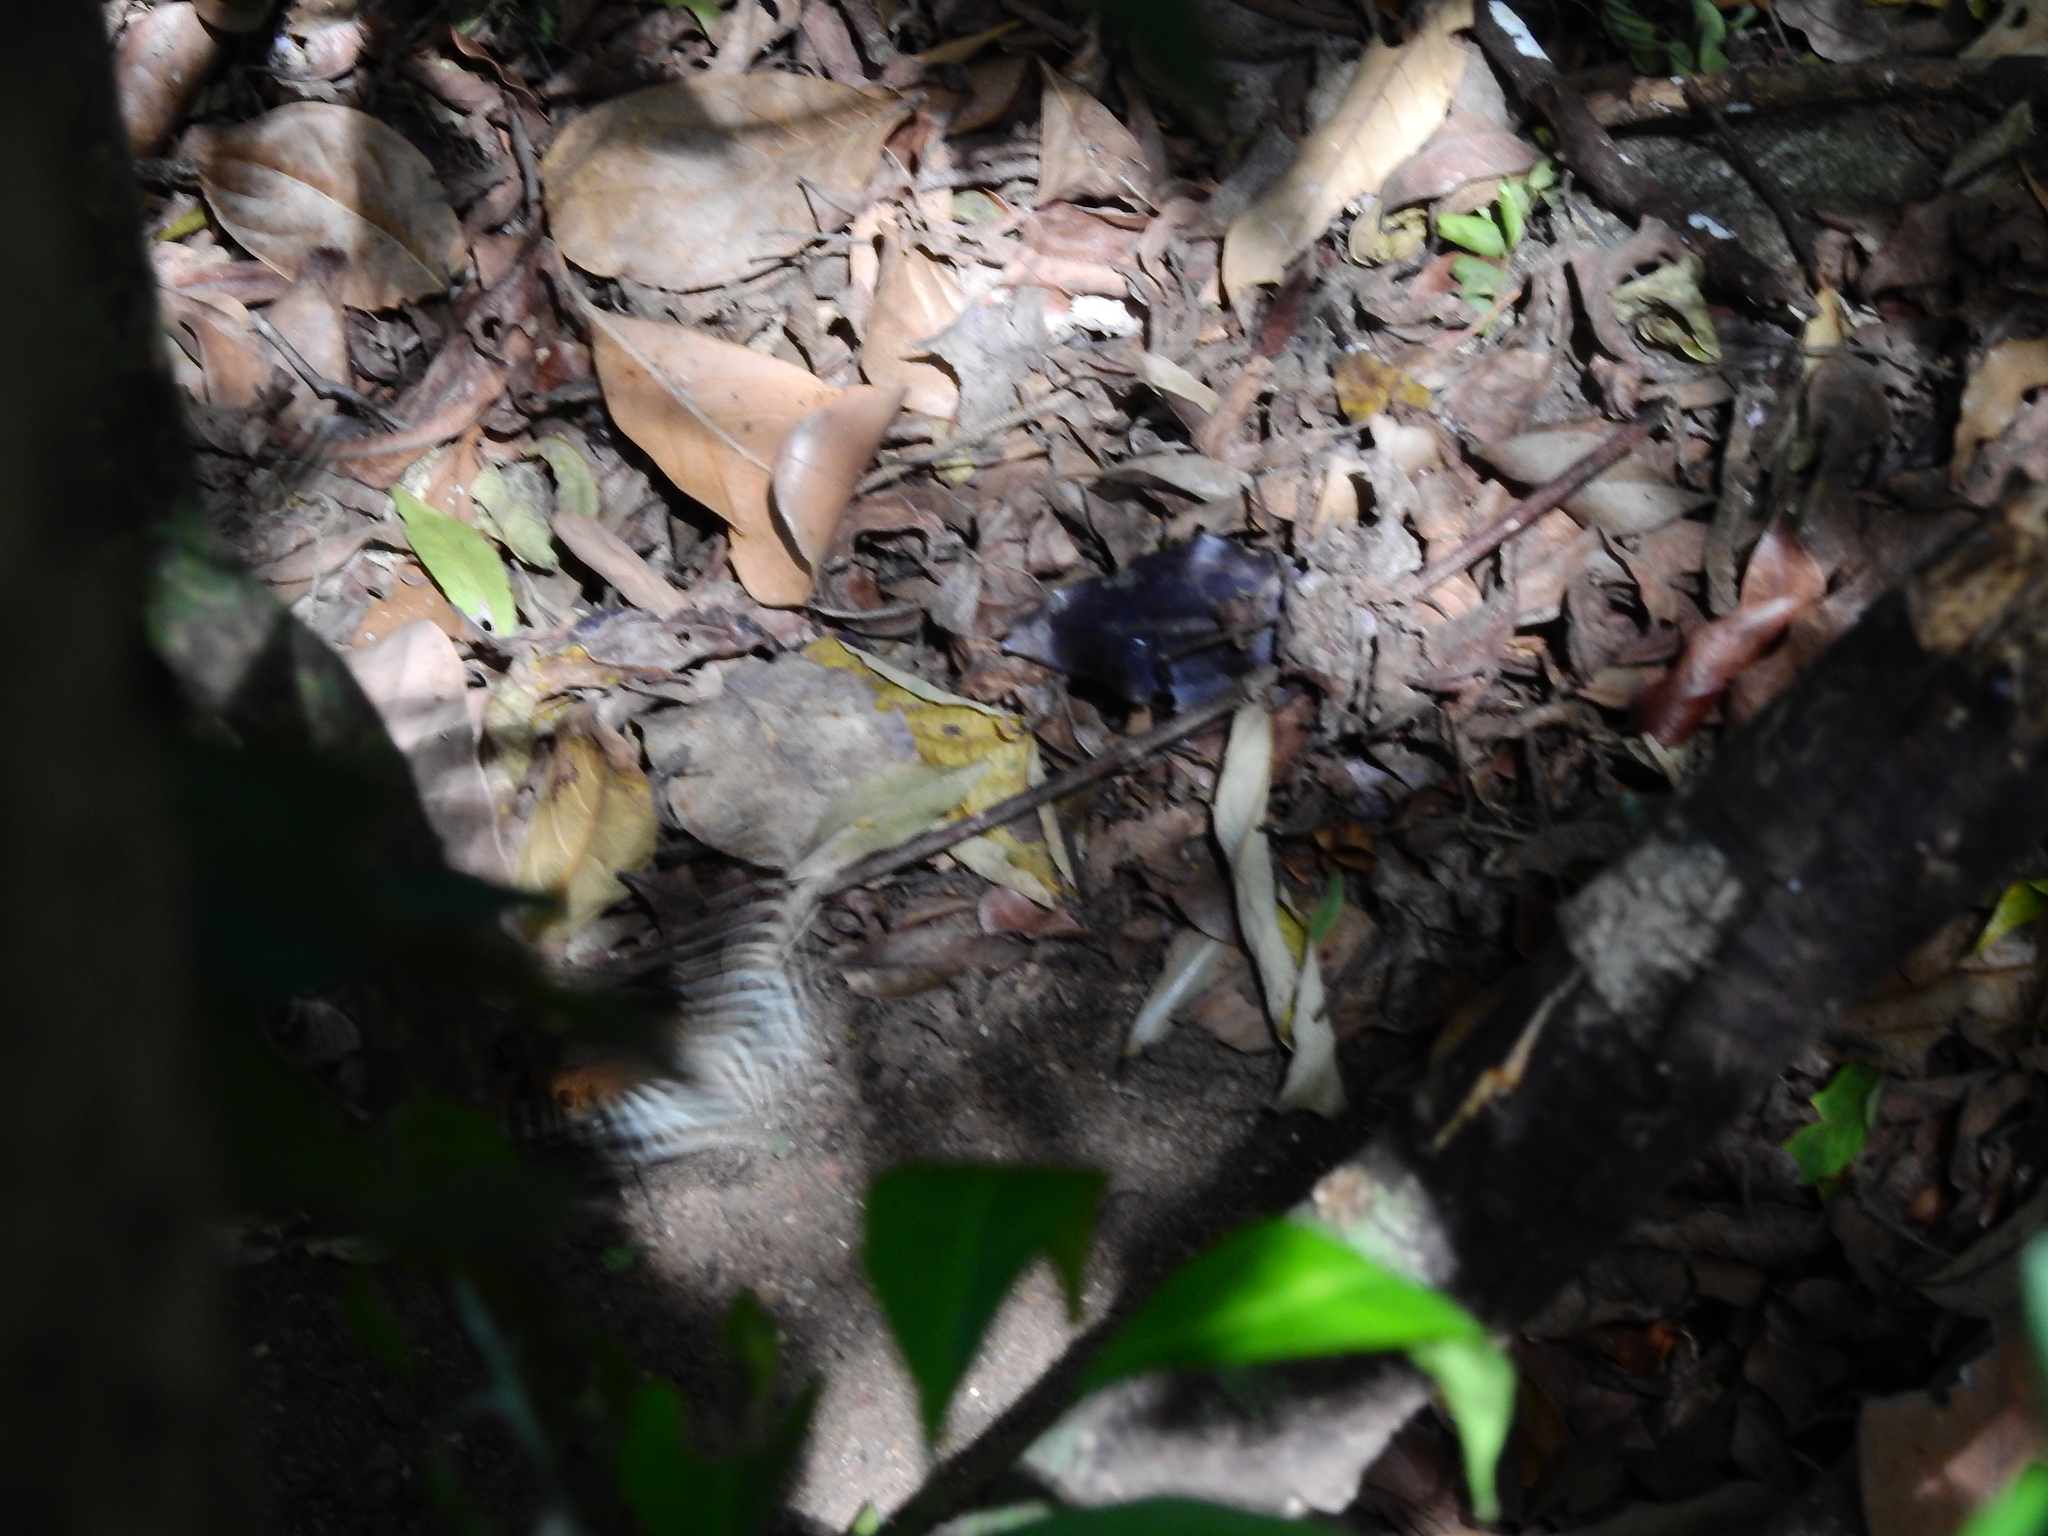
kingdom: Animalia
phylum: Arthropoda
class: Insecta
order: Lepidoptera
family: Papilionidae
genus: Papilio
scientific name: Papilio dravidarum
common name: Malabar raven
